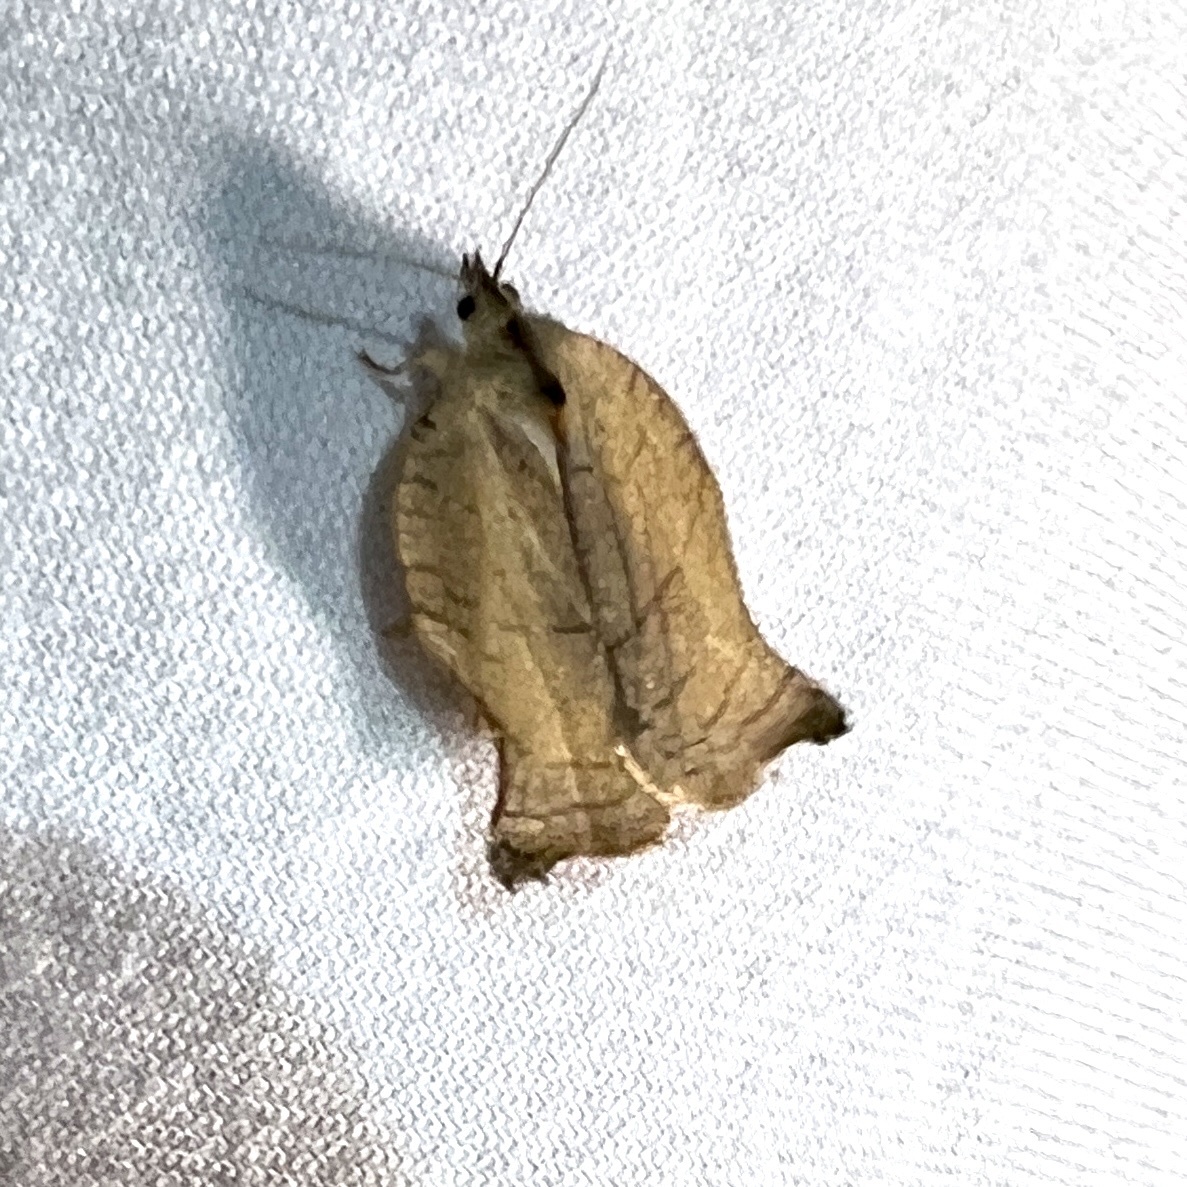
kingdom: Animalia
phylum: Arthropoda
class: Insecta
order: Lepidoptera
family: Tortricidae
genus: Archips
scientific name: Archips purpurana
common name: Omnivorous leafroller
